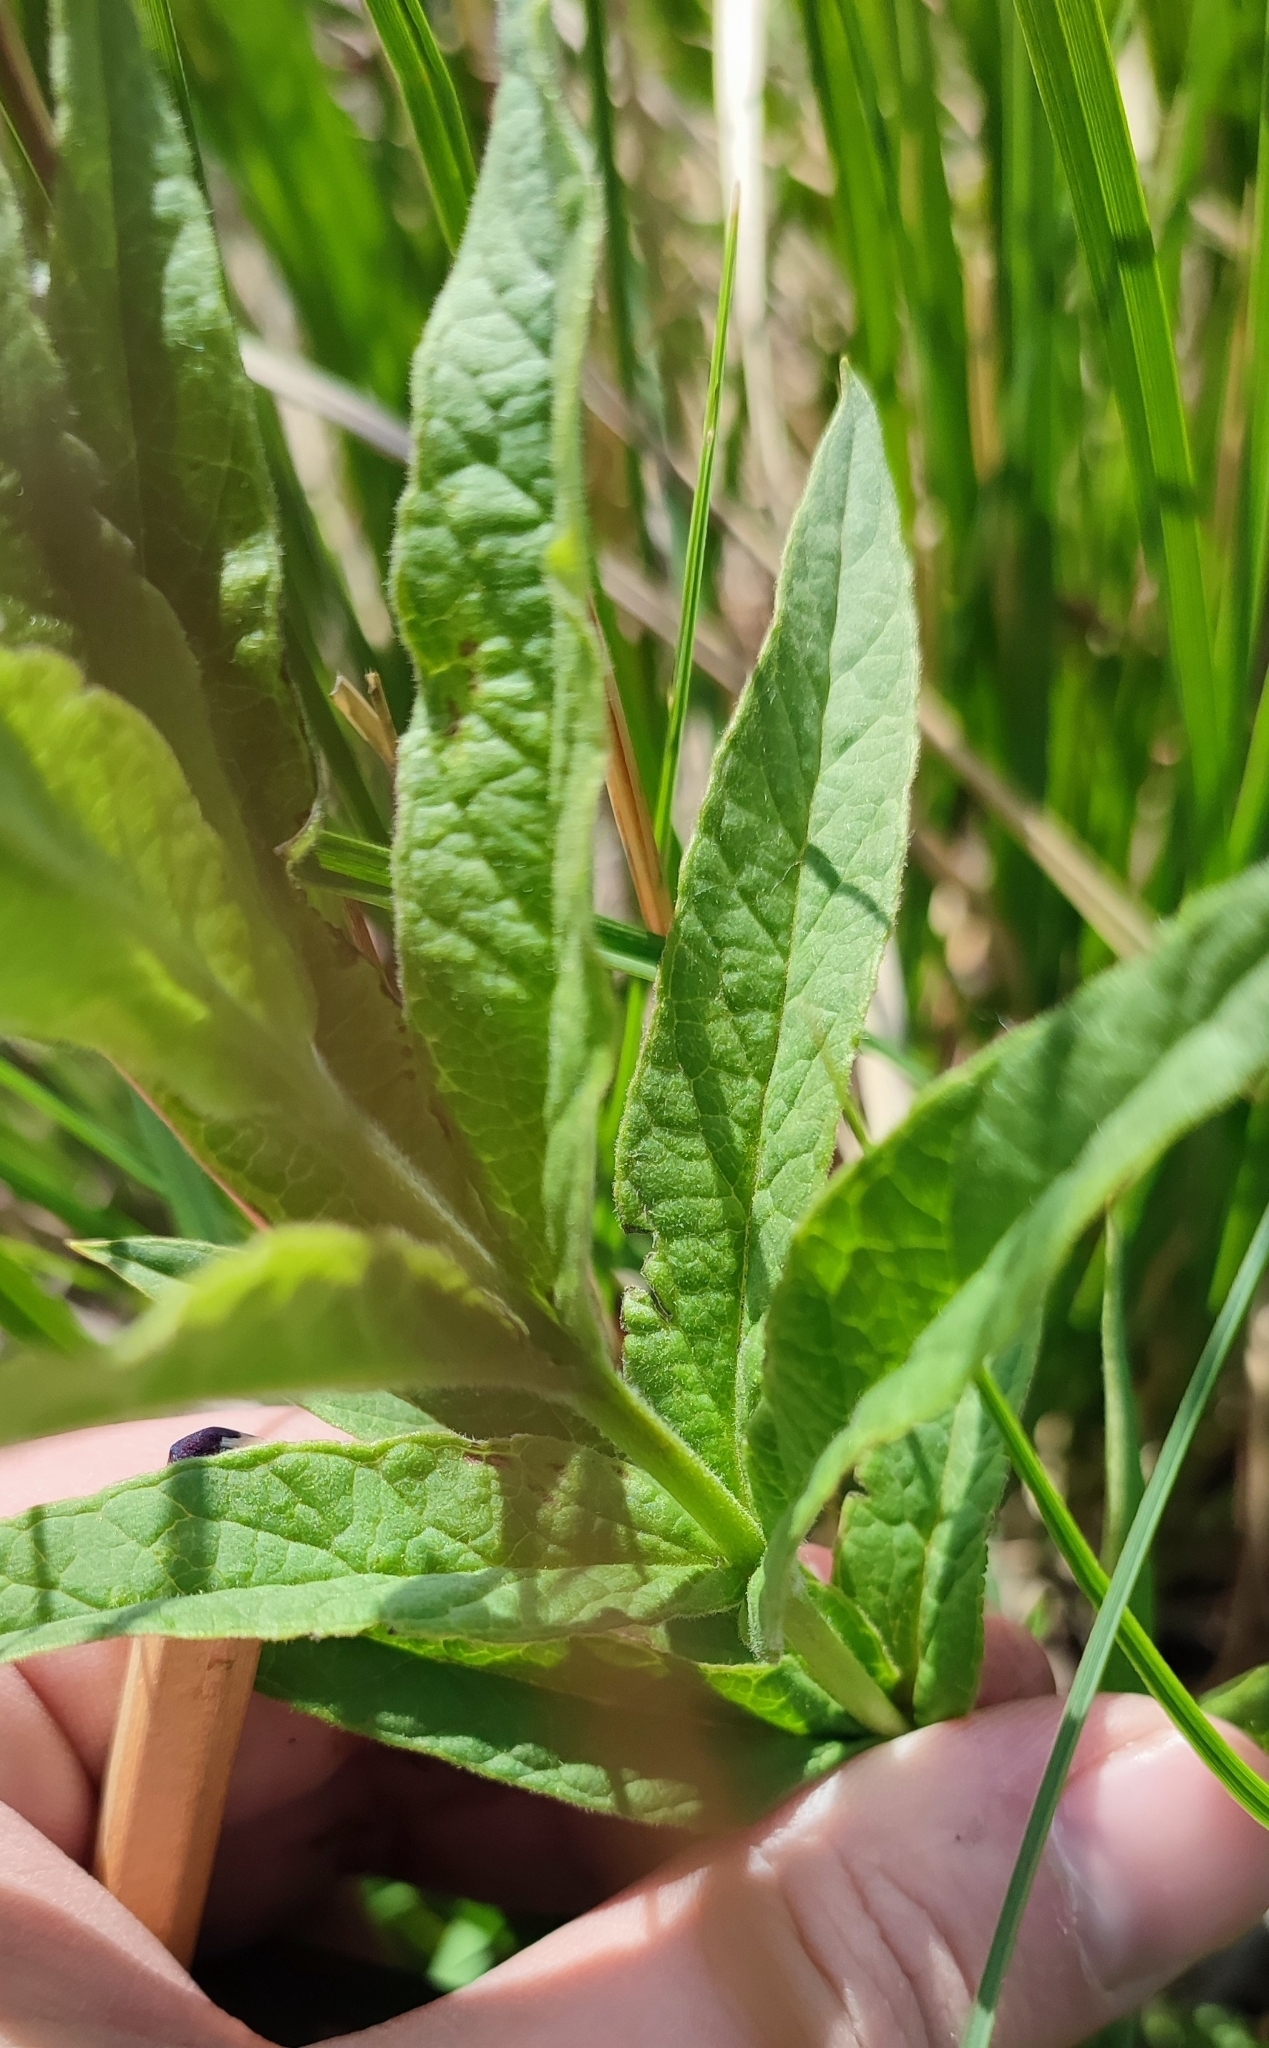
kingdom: Plantae
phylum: Tracheophyta
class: Magnoliopsida
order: Ericales
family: Primulaceae
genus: Lysimachia
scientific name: Lysimachia vulgaris
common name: Yellow loosestrife
